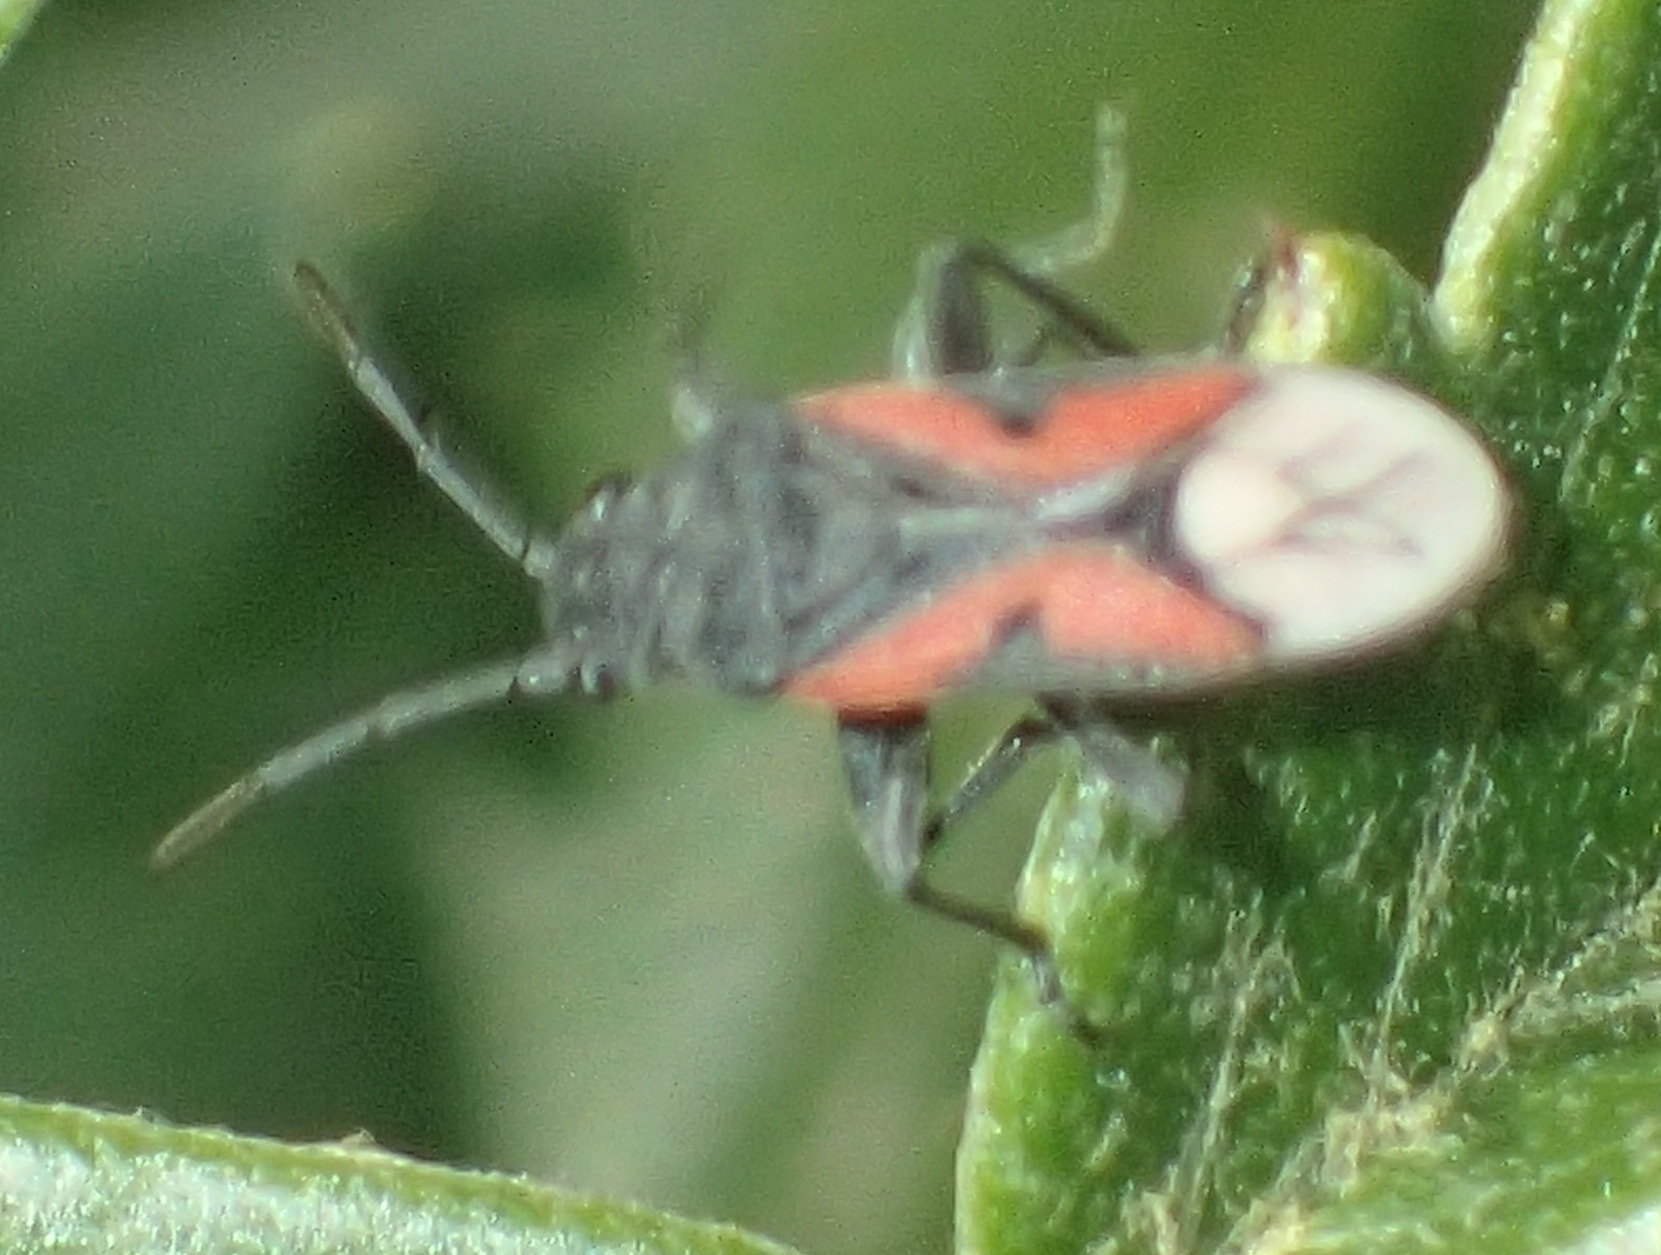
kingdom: Animalia
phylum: Arthropoda
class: Insecta
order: Hemiptera
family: Lygaeidae
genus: Melanostethus
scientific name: Melanostethus melanurus
